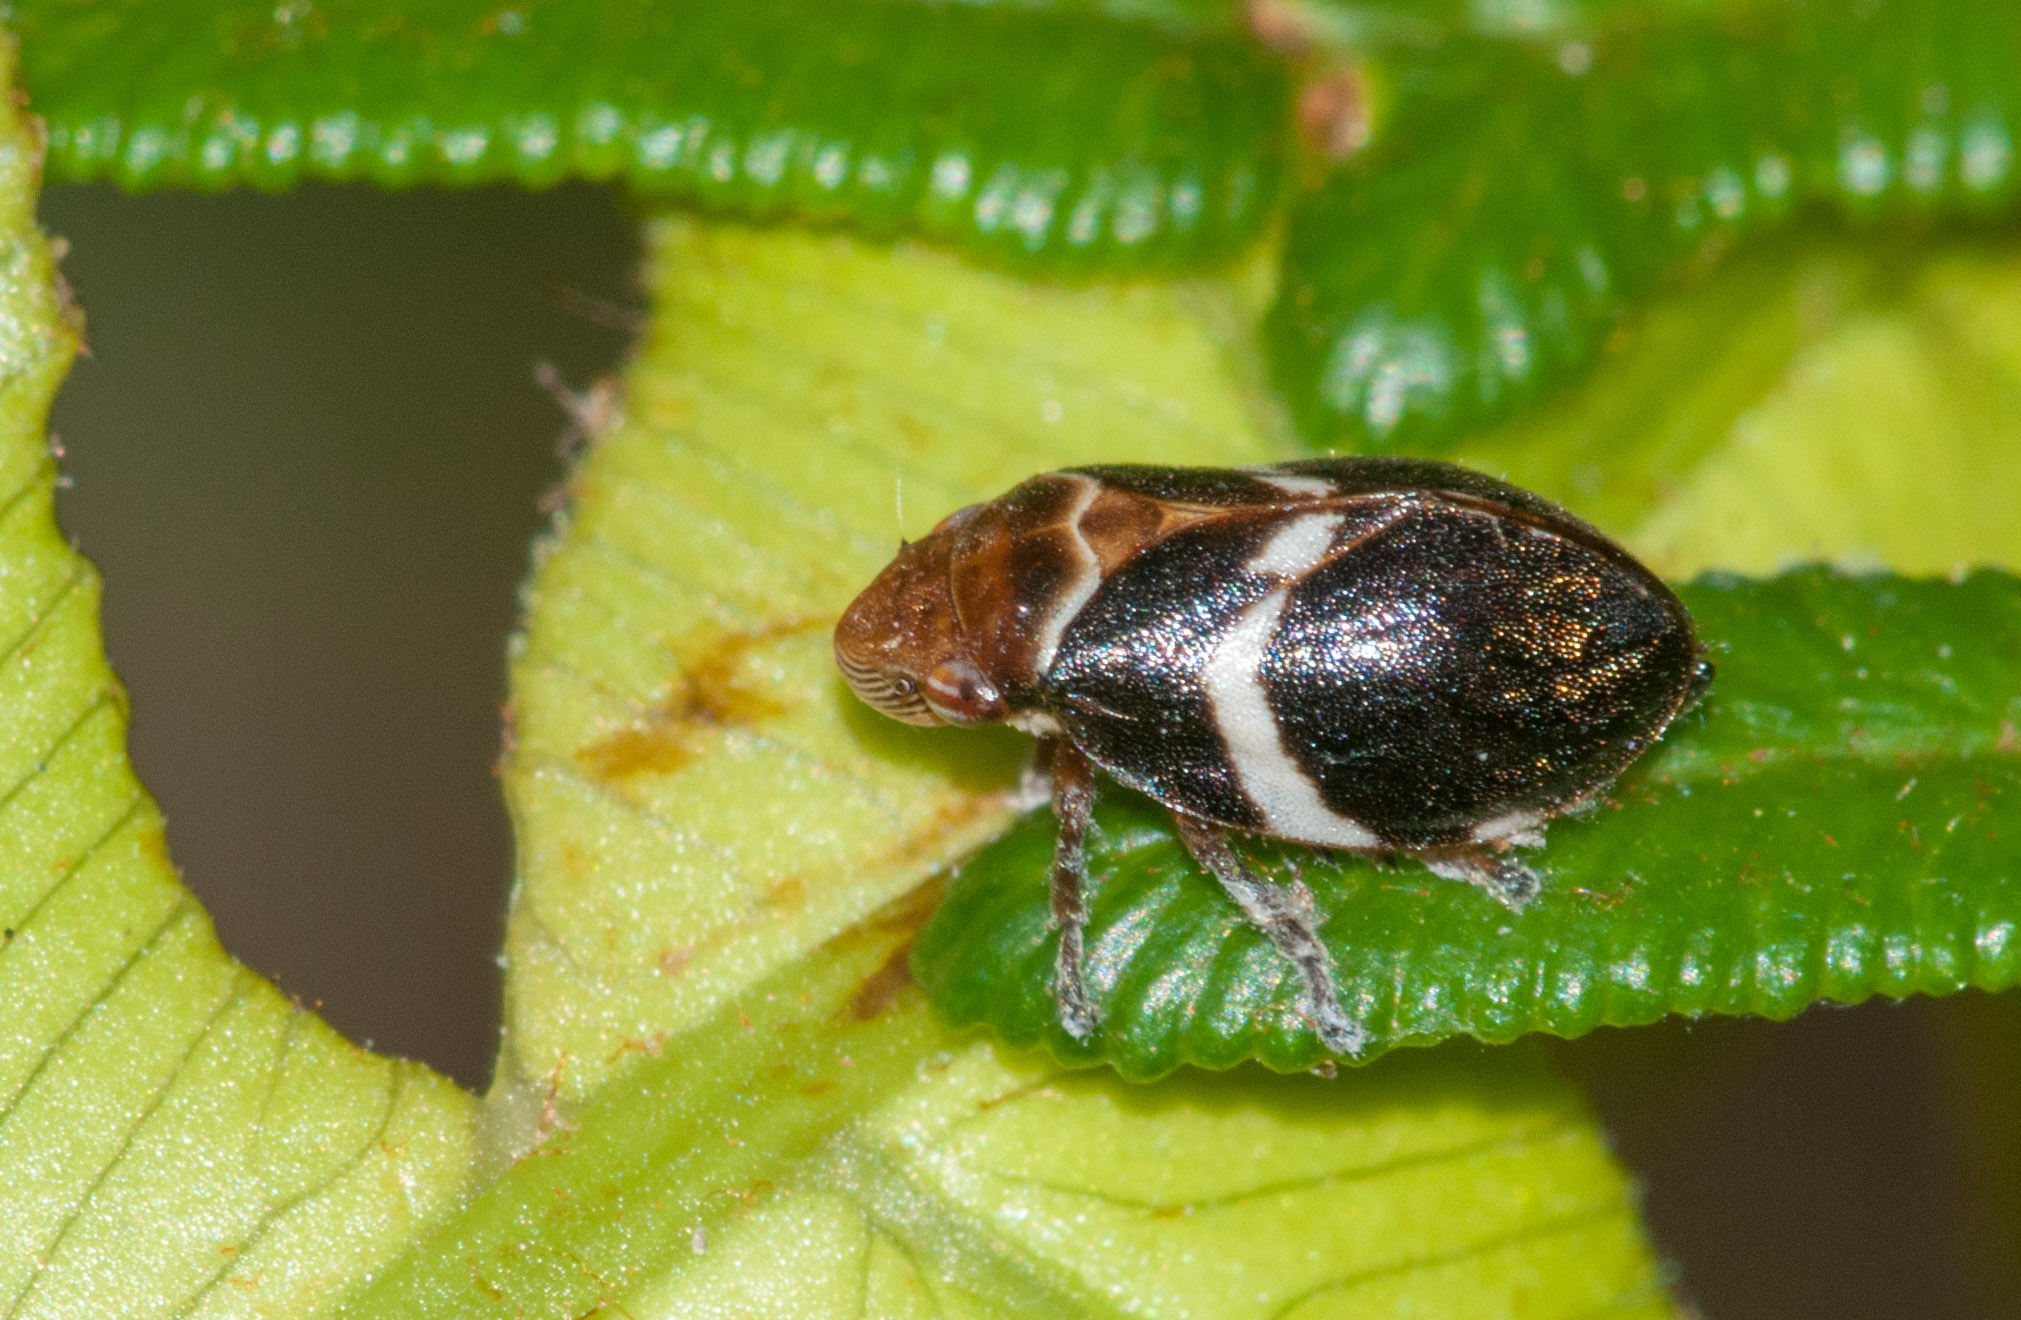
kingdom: Animalia
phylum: Arthropoda
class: Insecta
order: Hemiptera
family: Aphrophoridae
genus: Bathyllus
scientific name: Bathyllus albicinctus
